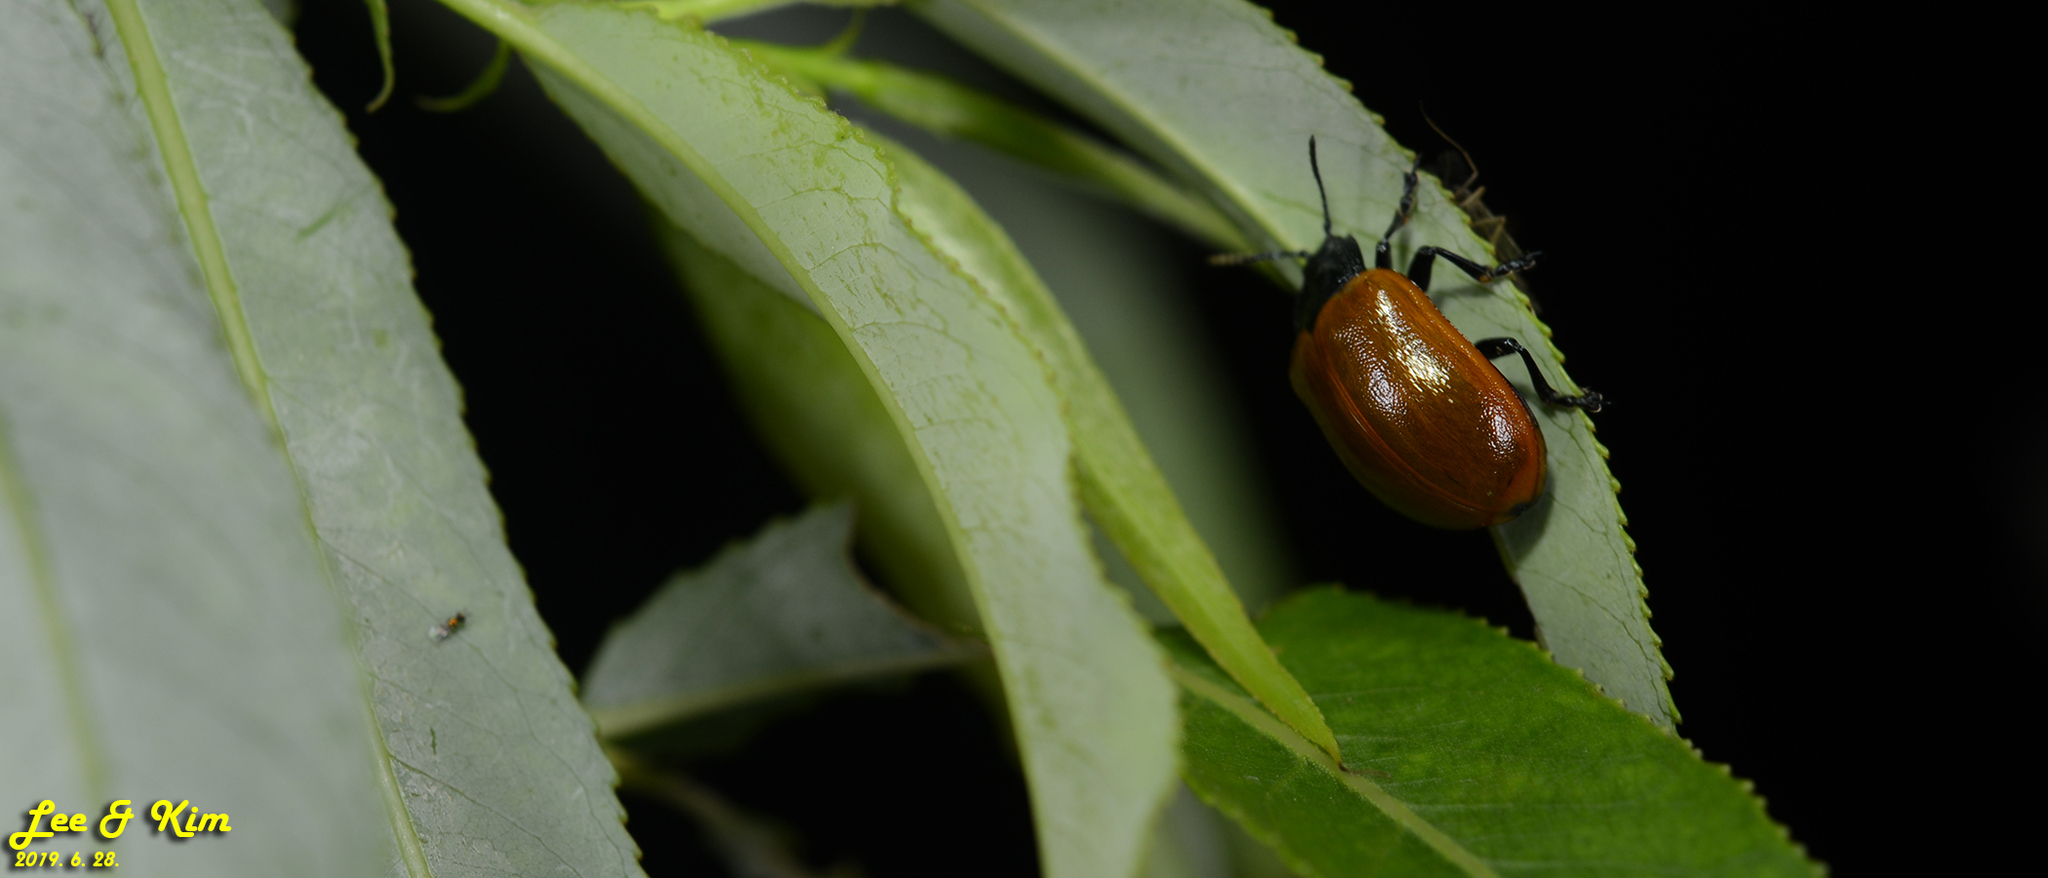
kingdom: Animalia
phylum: Arthropoda
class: Insecta
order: Coleoptera
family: Chrysomelidae
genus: Chrysomela
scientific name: Chrysomela populi
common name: Red poplar leaf beetle
